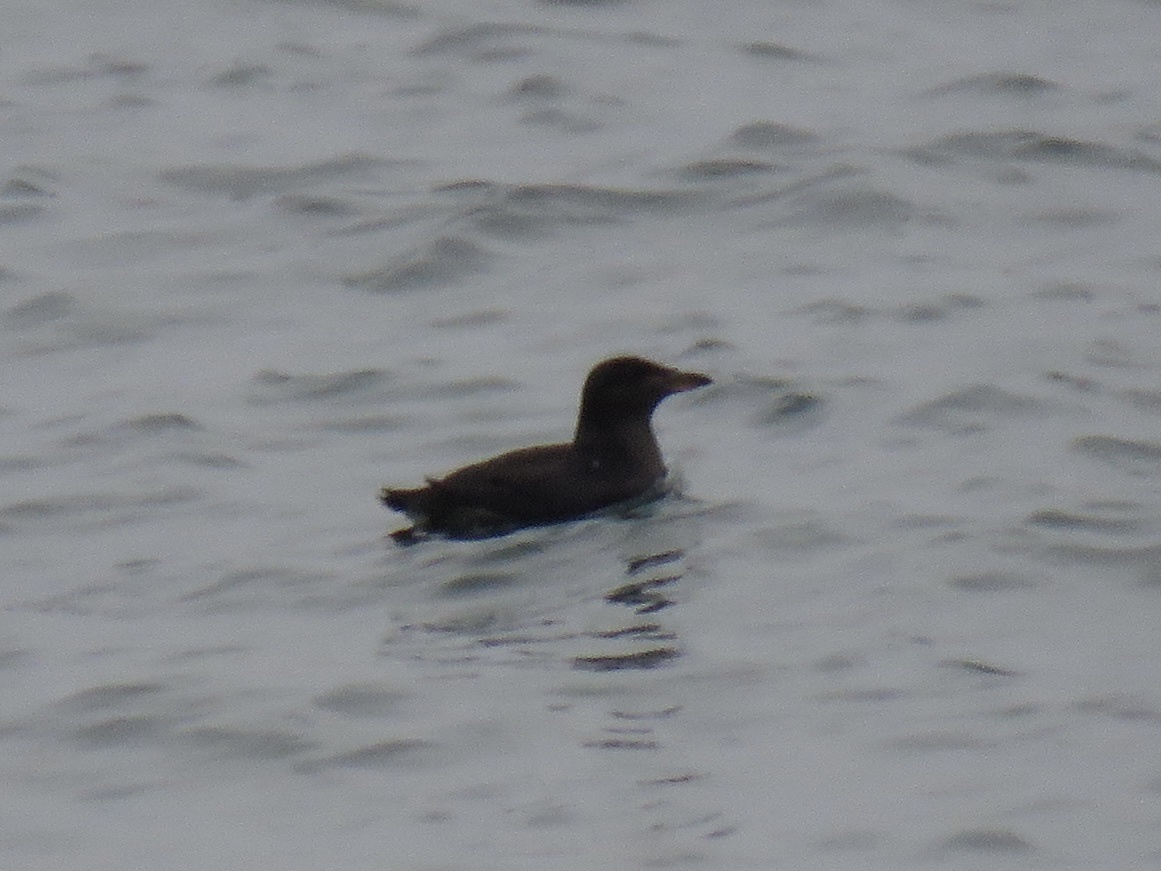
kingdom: Animalia
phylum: Chordata
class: Aves
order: Charadriiformes
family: Alcidae
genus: Cerorhinca
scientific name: Cerorhinca monocerata
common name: Rhinoceros auklet
